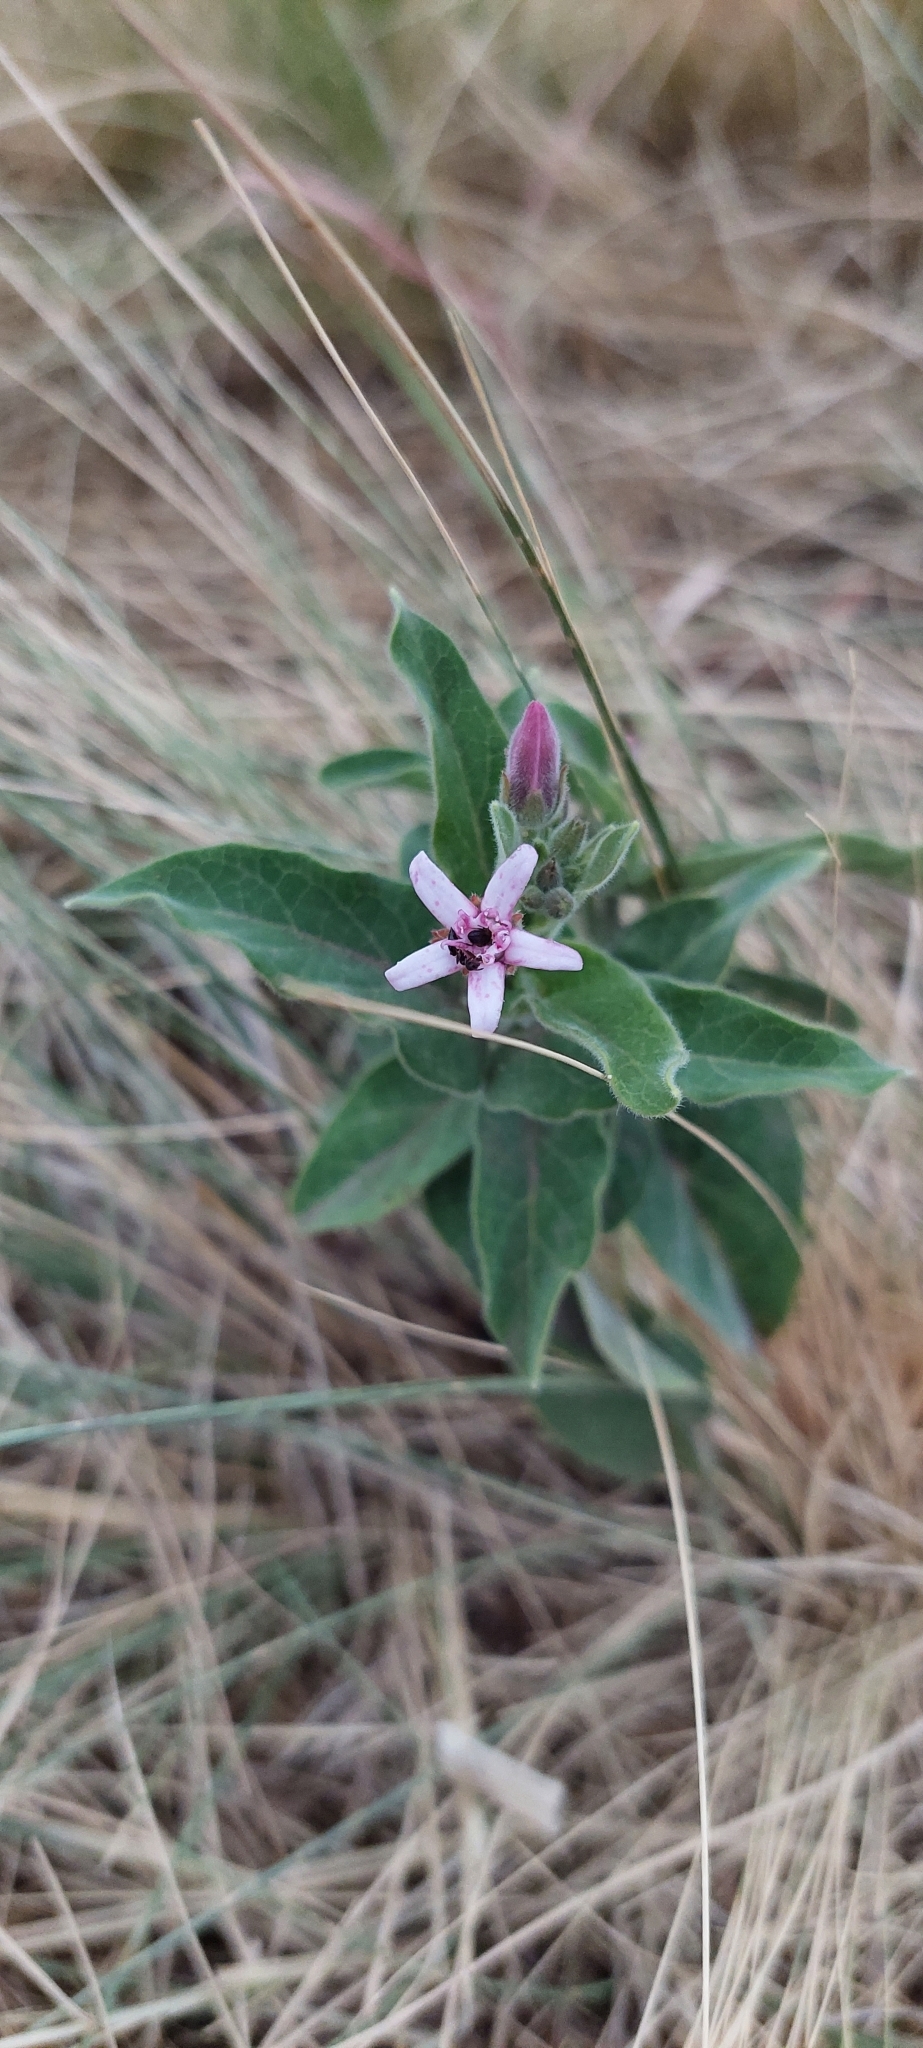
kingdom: Plantae
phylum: Tracheophyta
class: Magnoliopsida
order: Gentianales
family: Apocynaceae
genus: Oxypetalum
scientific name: Oxypetalum solanoides
